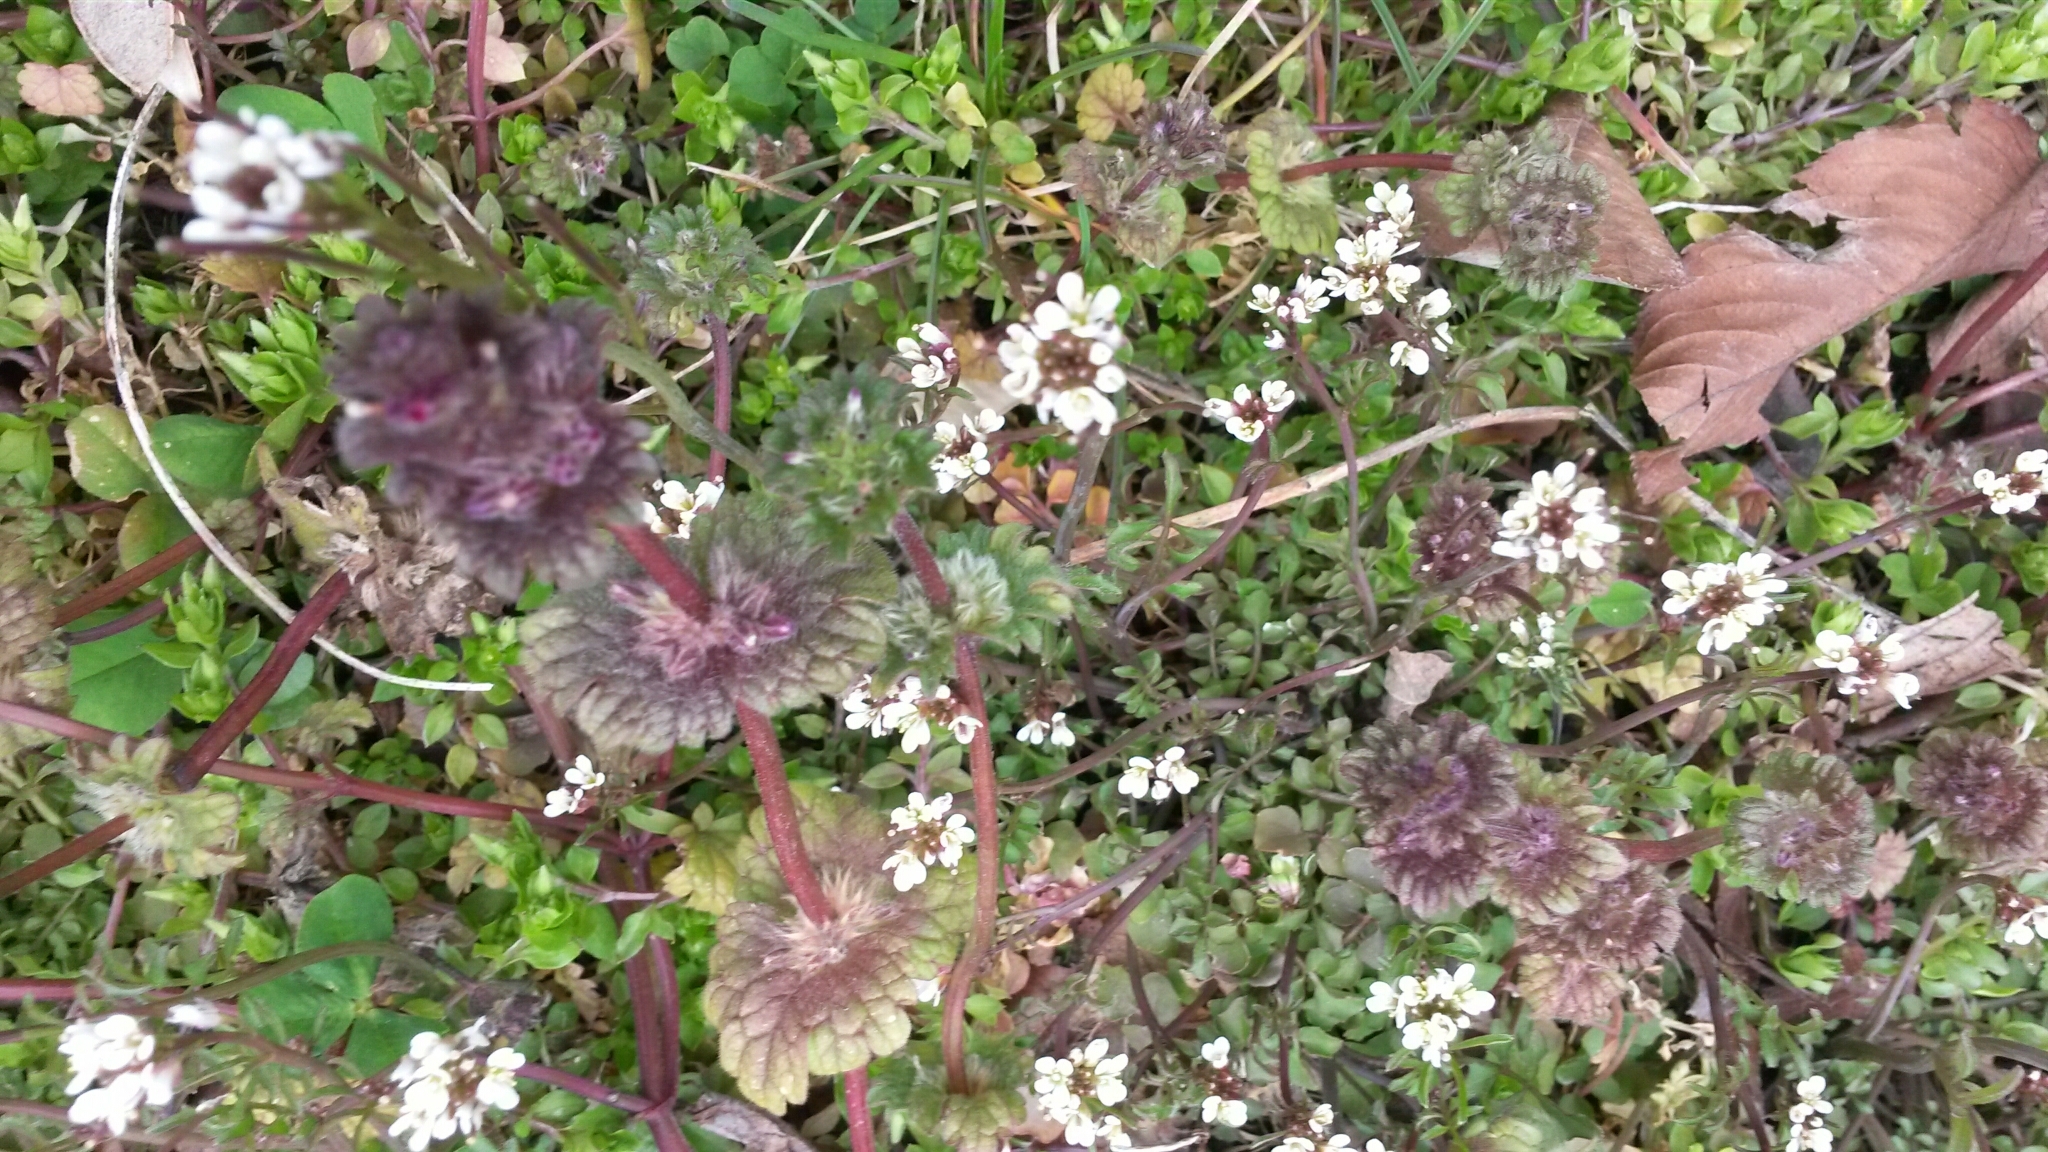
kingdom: Plantae
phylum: Tracheophyta
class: Magnoliopsida
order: Lamiales
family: Lamiaceae
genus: Lamium
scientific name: Lamium amplexicaule
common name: Henbit dead-nettle
